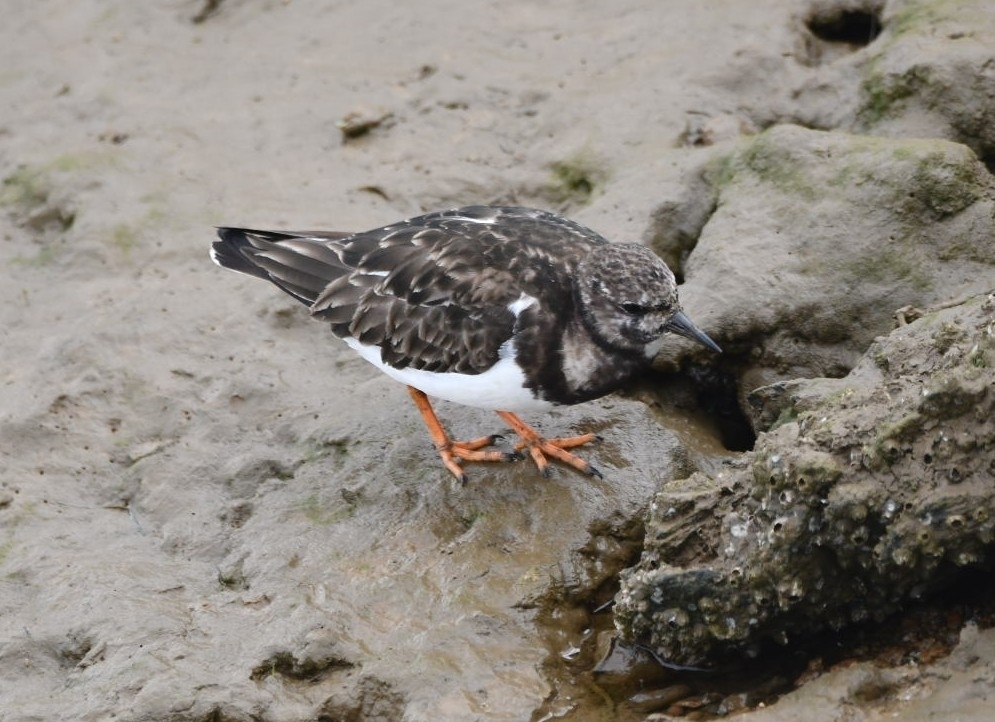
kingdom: Animalia
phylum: Chordata
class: Aves
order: Charadriiformes
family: Scolopacidae
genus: Arenaria
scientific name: Arenaria interpres
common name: Ruddy turnstone
